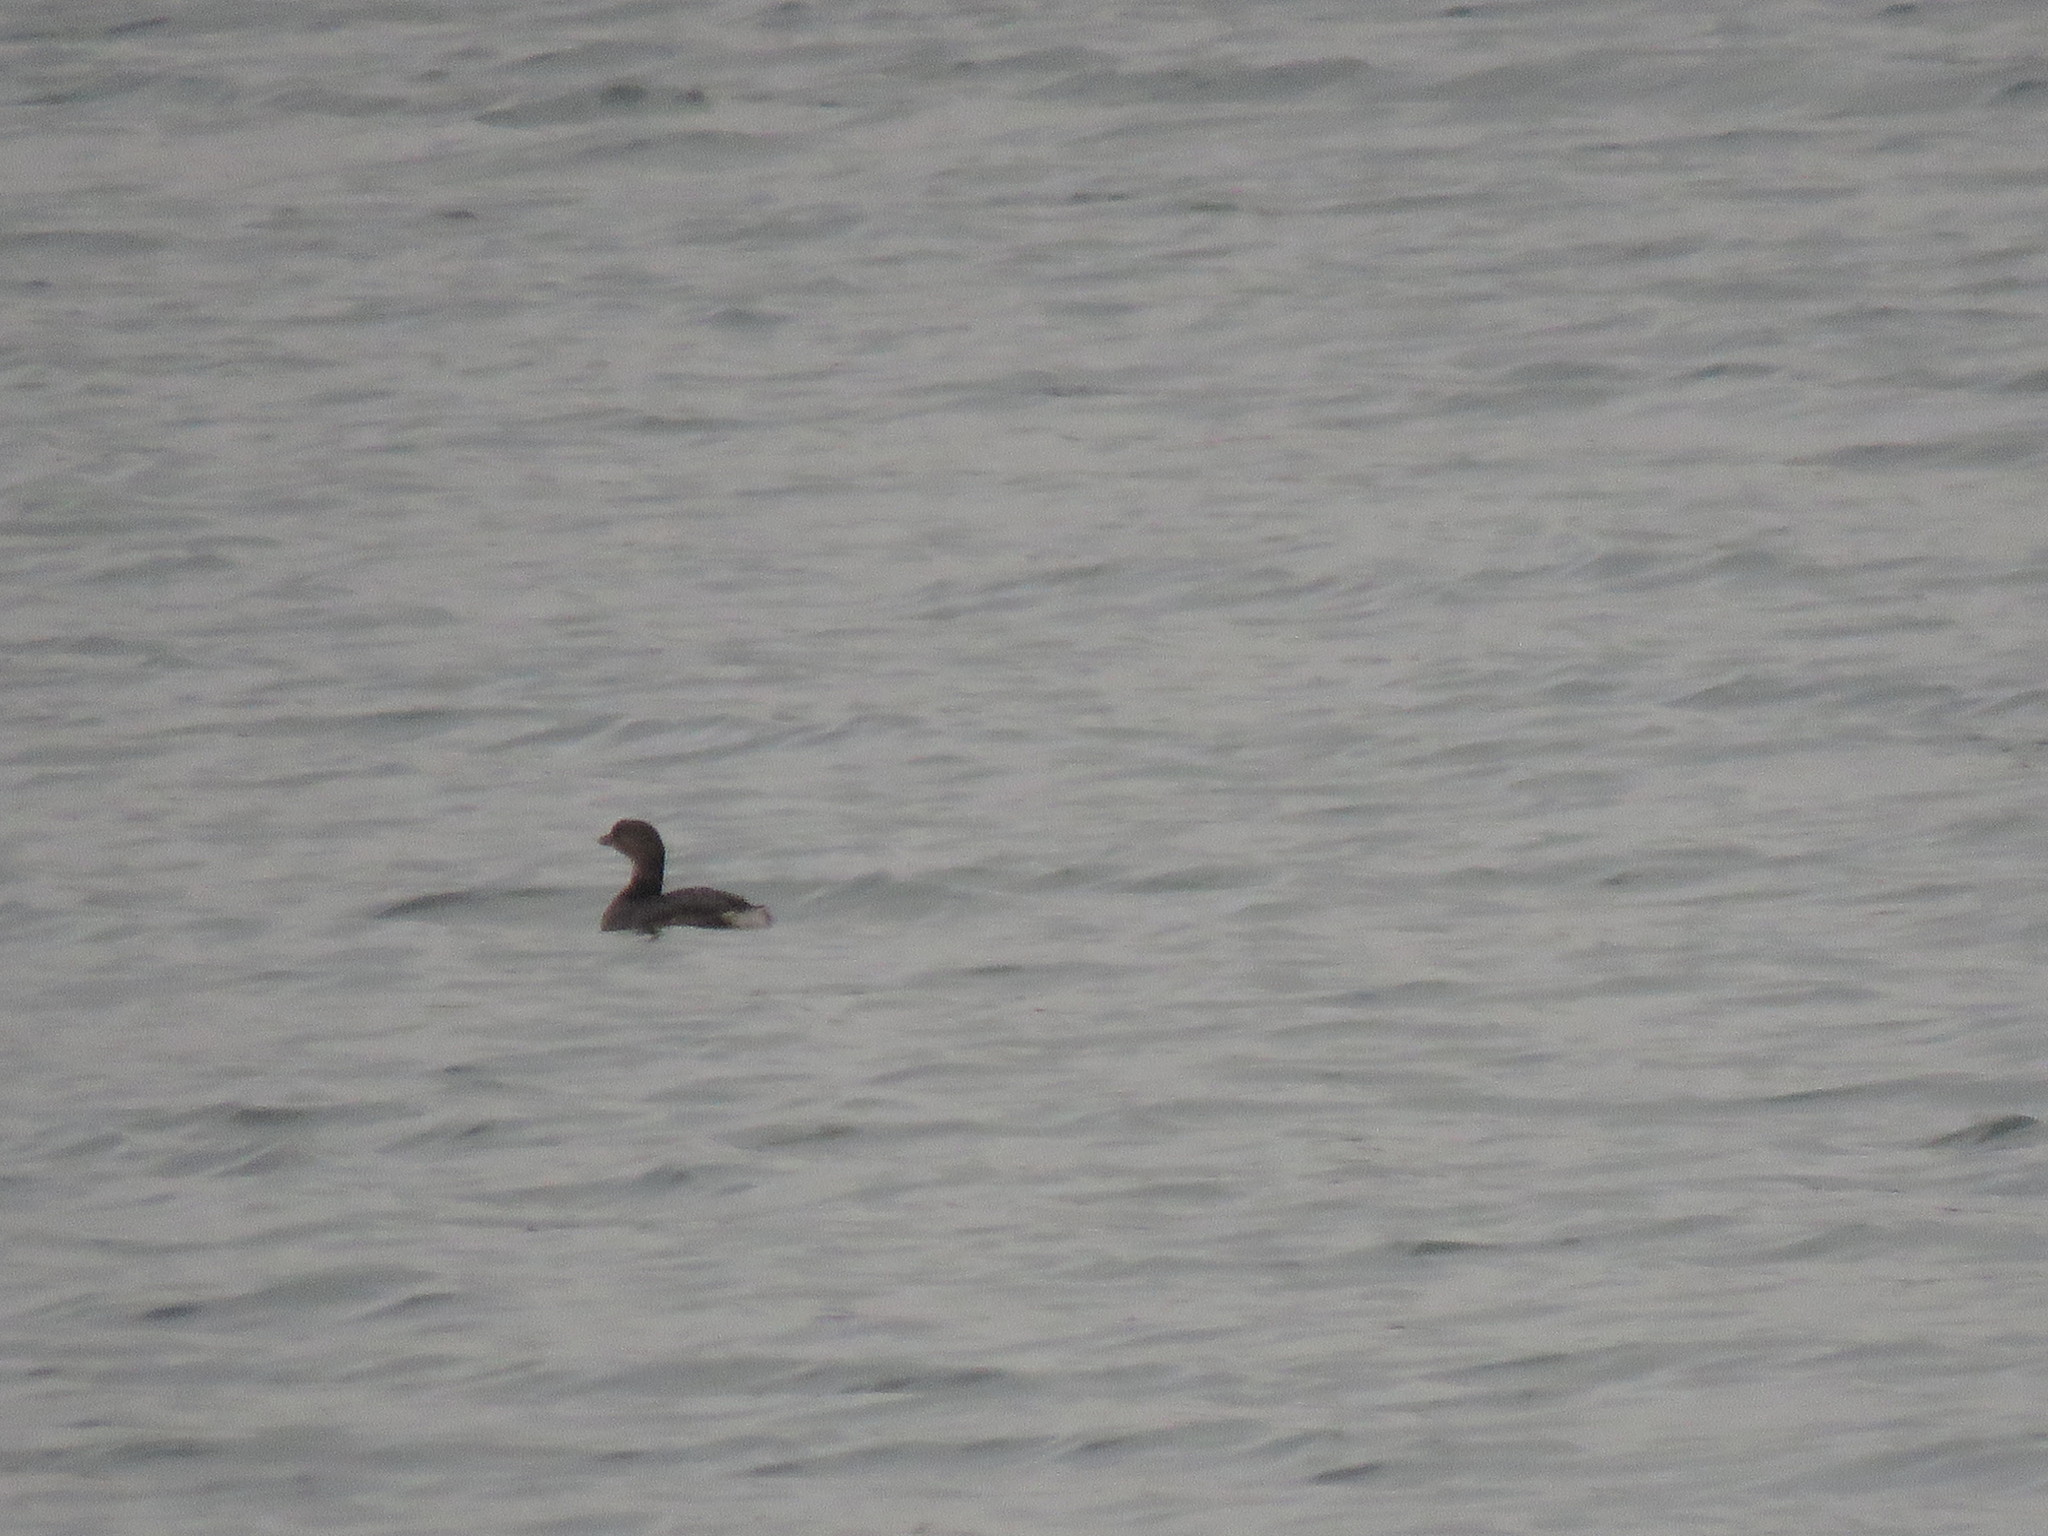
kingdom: Animalia
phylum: Chordata
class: Aves
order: Podicipediformes
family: Podicipedidae
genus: Podilymbus
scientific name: Podilymbus podiceps
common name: Pied-billed grebe
